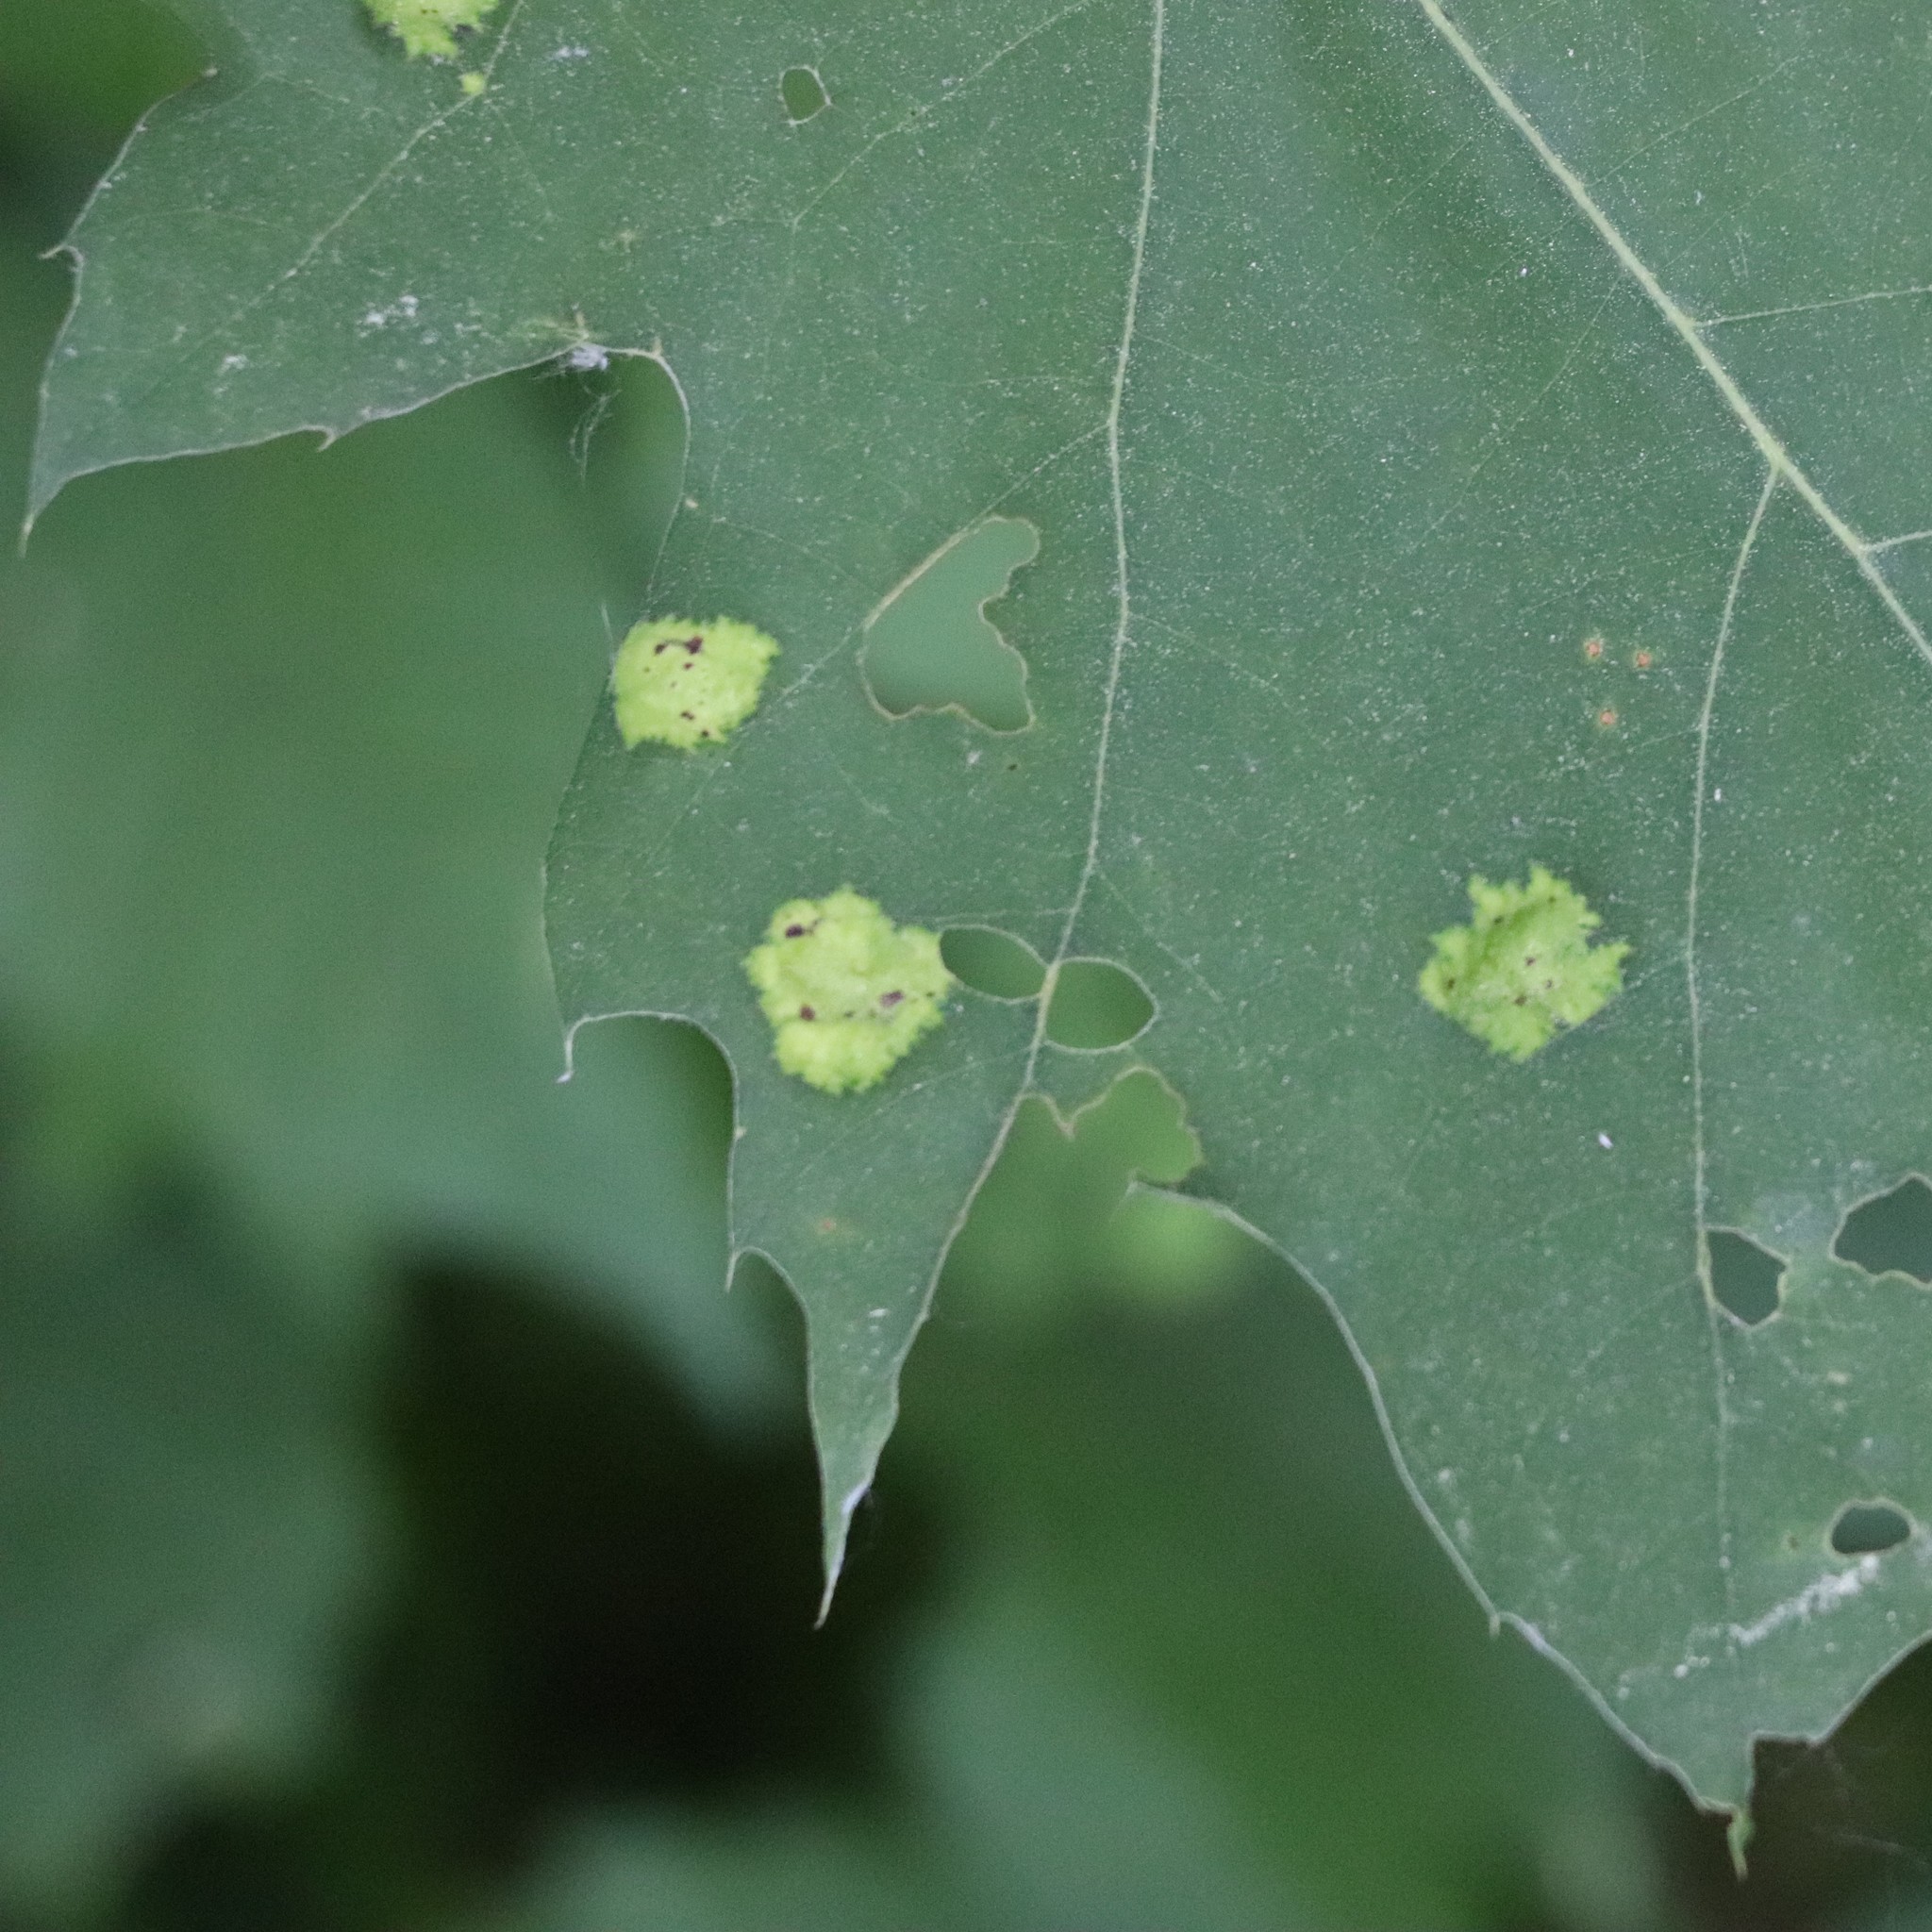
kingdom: Fungi
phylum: Ascomycota
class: Taphrinomycetes
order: Taphrinales
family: Taphrinaceae
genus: Taphrina
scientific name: Taphrina caerulescens
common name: Oak leaf blister
